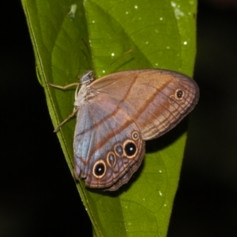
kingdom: Animalia
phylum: Arthropoda
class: Insecta
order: Lepidoptera
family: Nymphalidae
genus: Amiga
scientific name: Amiga arnaca
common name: Blue-topped satyr
